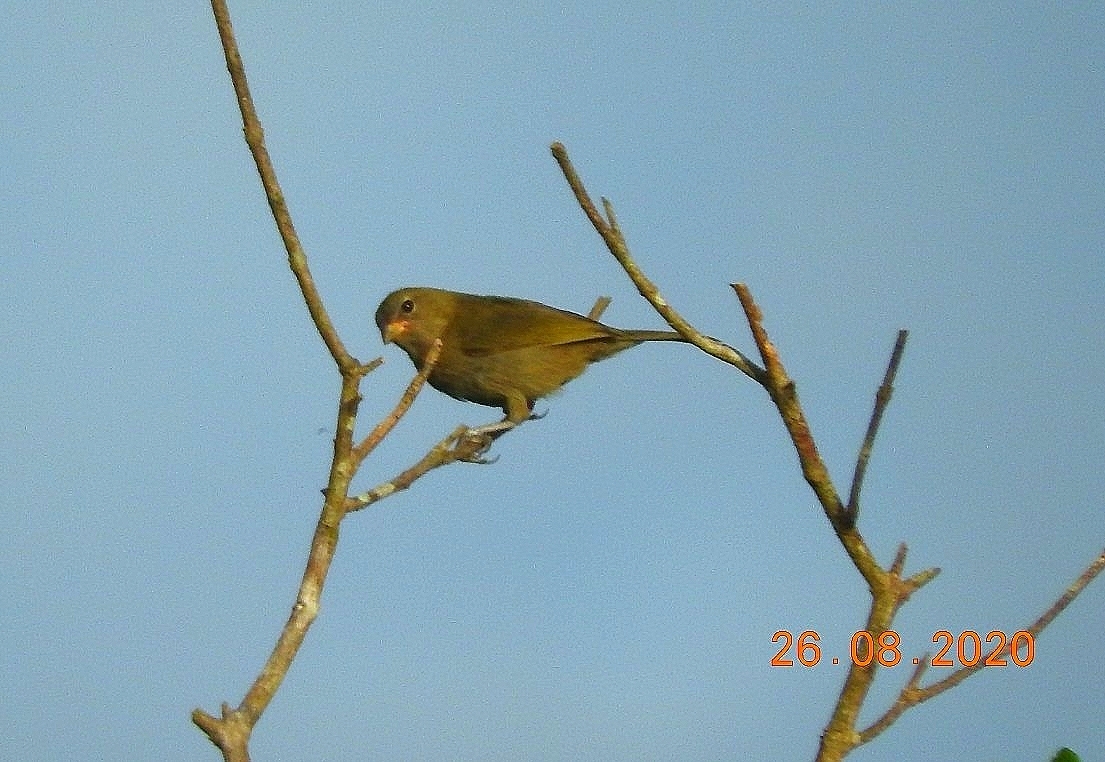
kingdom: Animalia
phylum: Chordata
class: Aves
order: Passeriformes
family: Thraupidae
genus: Tiaris
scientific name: Tiaris olivaceus
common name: Yellow-faced grassquit
